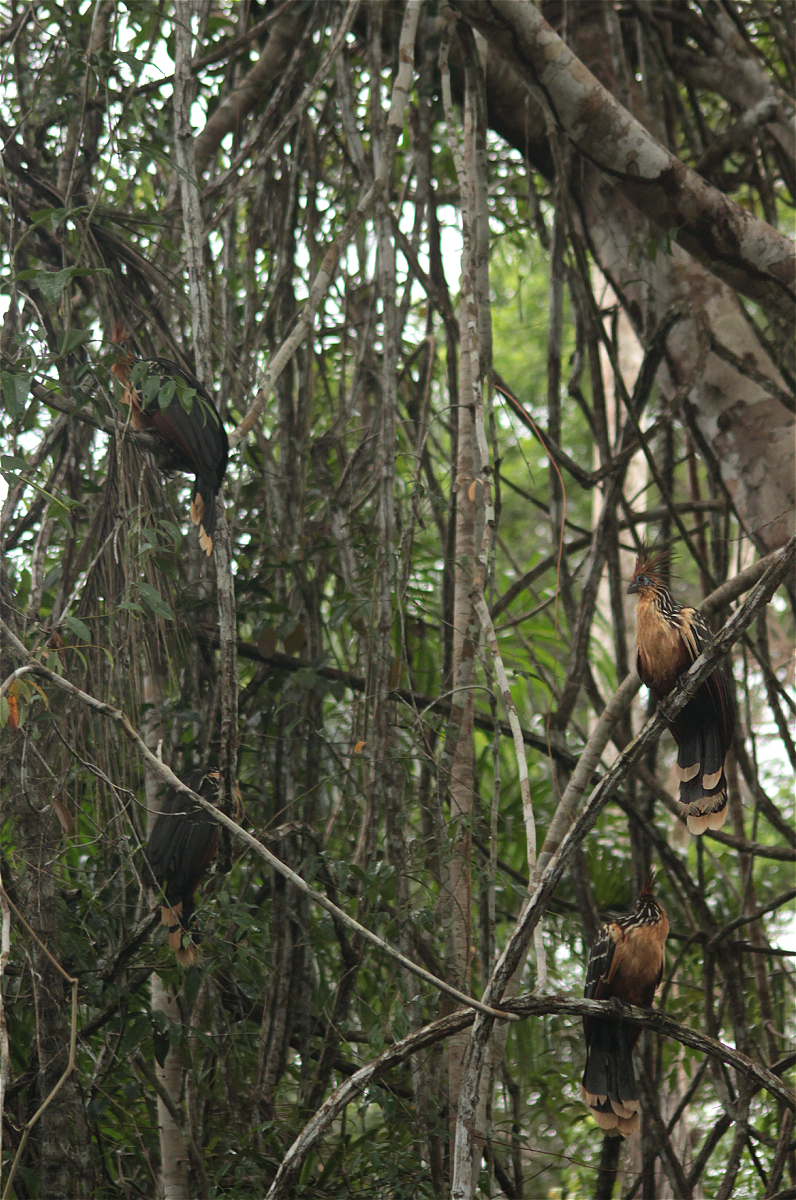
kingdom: Animalia
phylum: Chordata
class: Aves
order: Opisthocomiformes
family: Opisthocomidae
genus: Opisthocomus
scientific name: Opisthocomus hoazin
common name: Hoatzin
